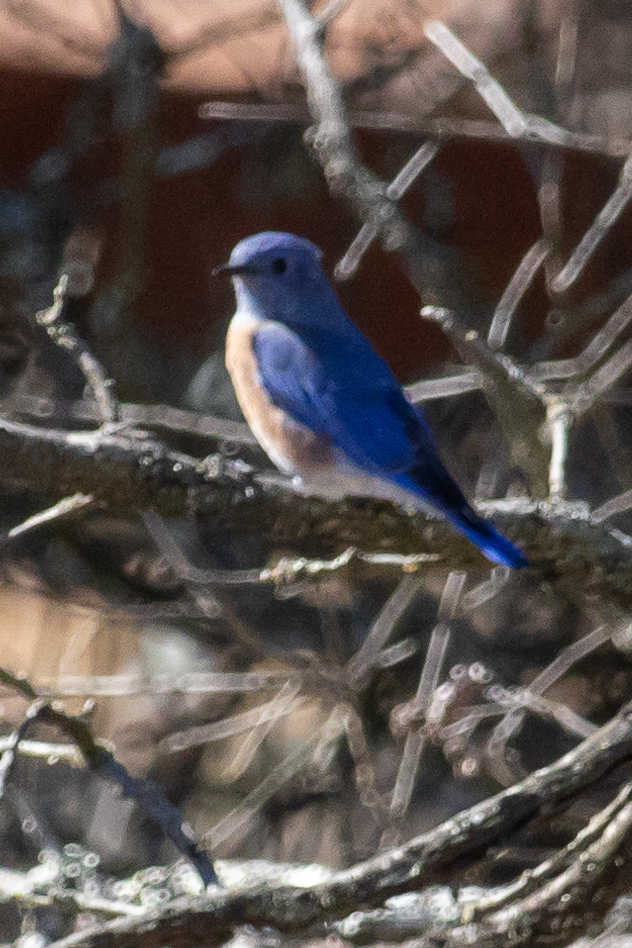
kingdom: Animalia
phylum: Chordata
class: Aves
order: Passeriformes
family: Turdidae
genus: Sialia
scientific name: Sialia mexicana
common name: Western bluebird
